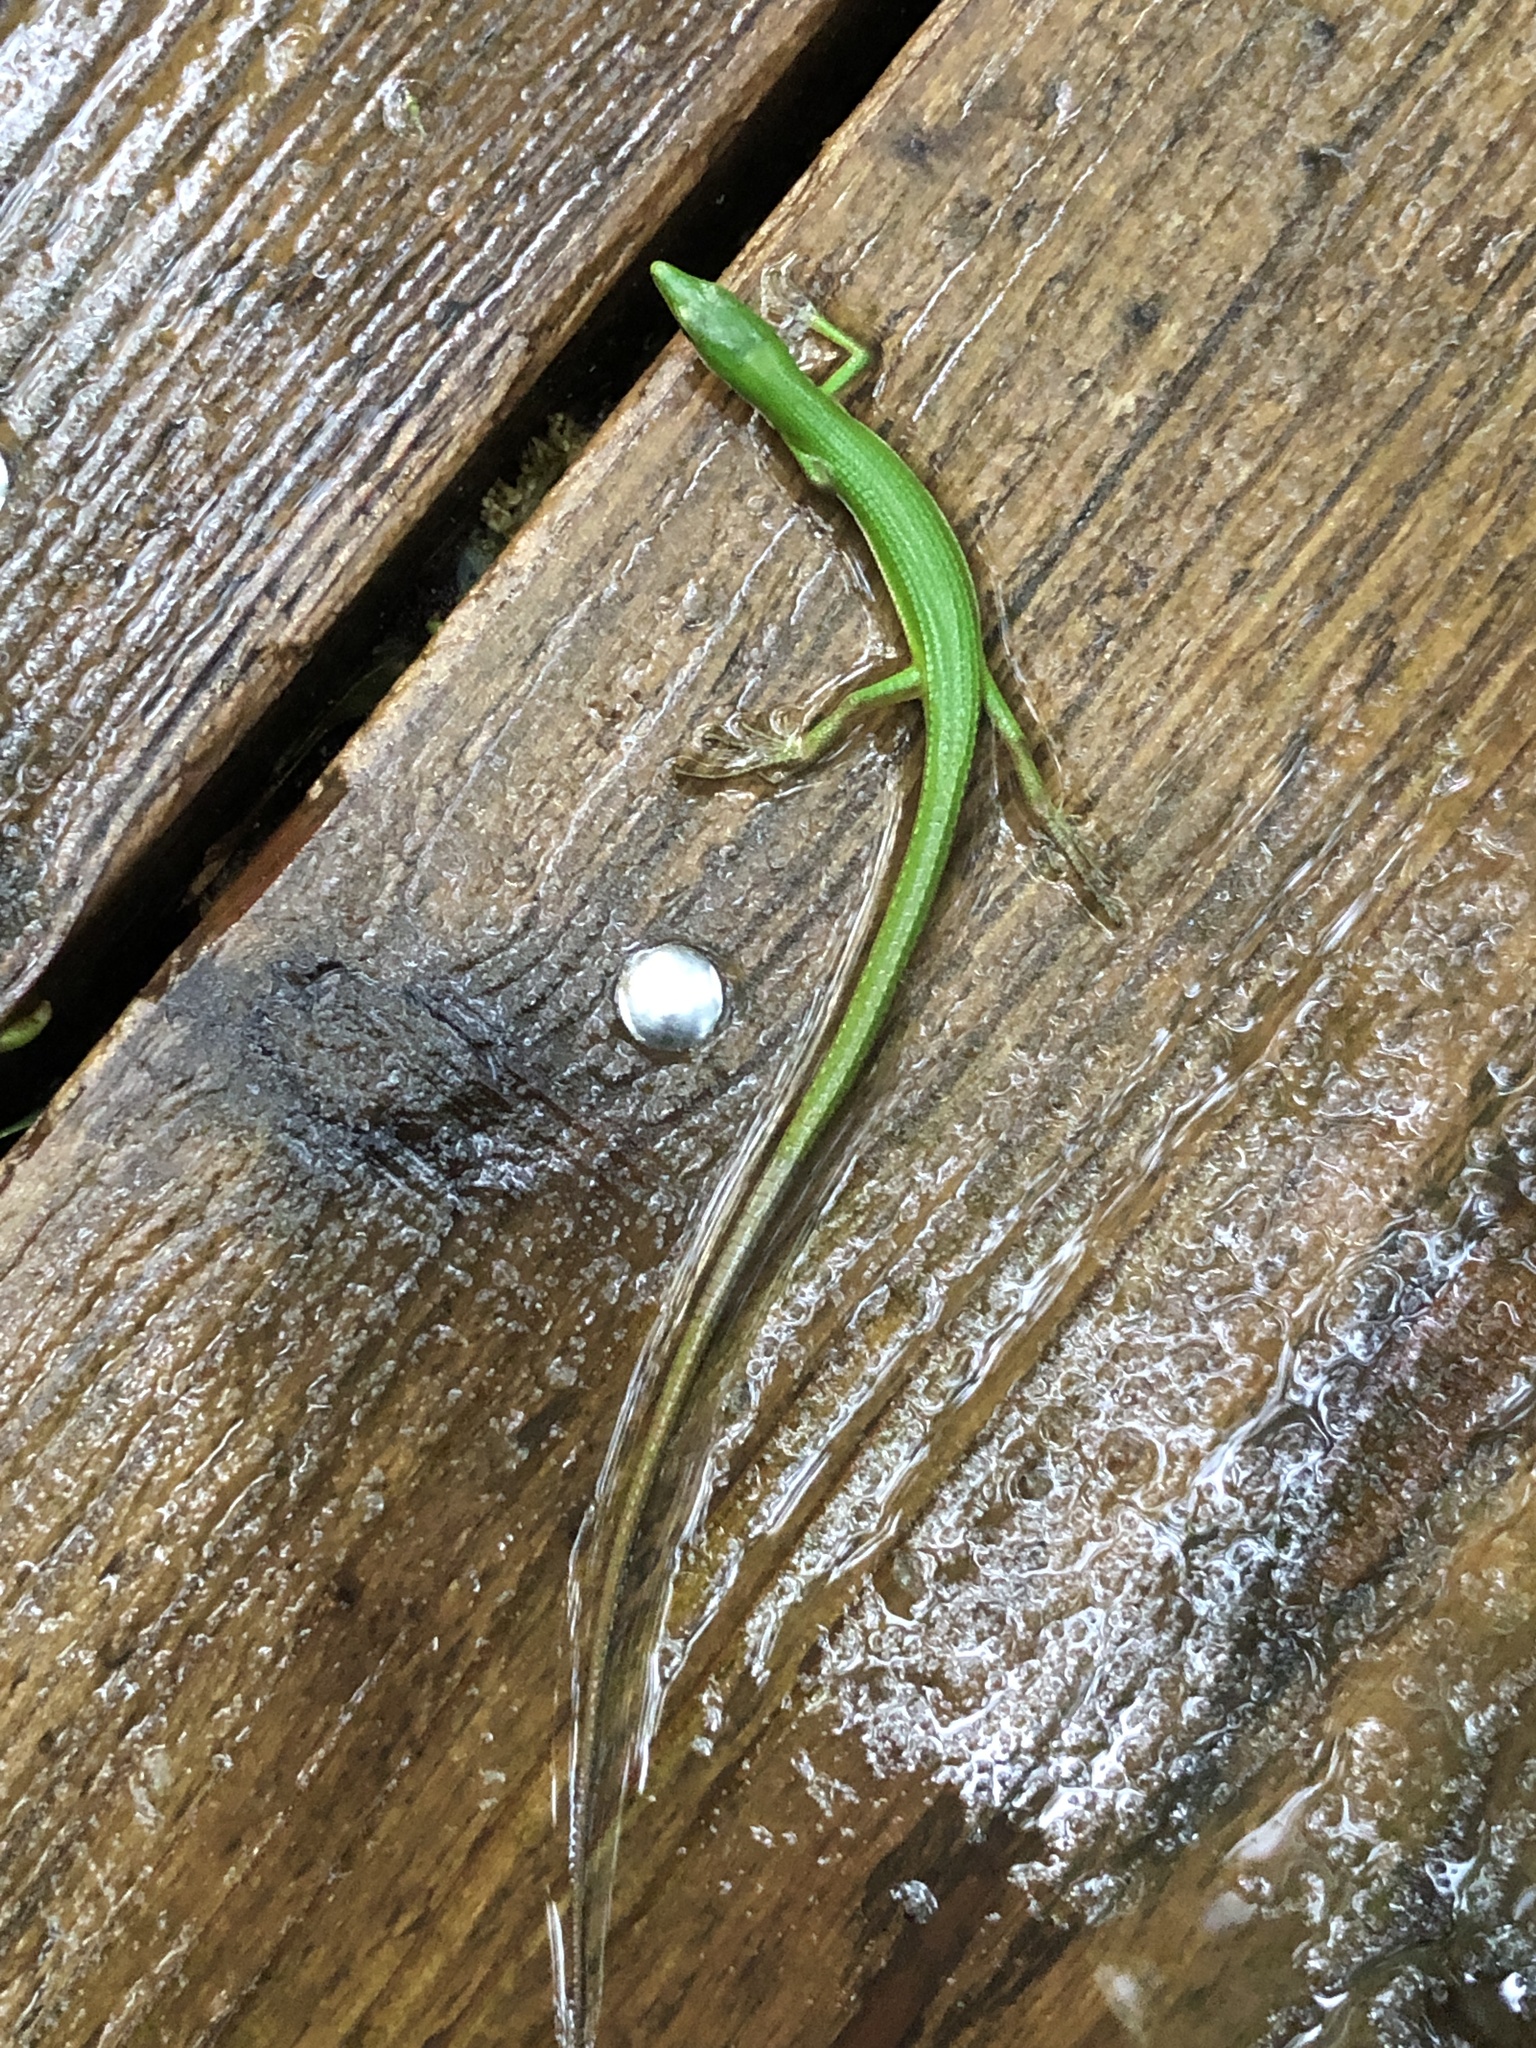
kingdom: Animalia
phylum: Chordata
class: Squamata
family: Lacertidae
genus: Takydromus
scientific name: Takydromus smaragdinus
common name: Green grass lizard
